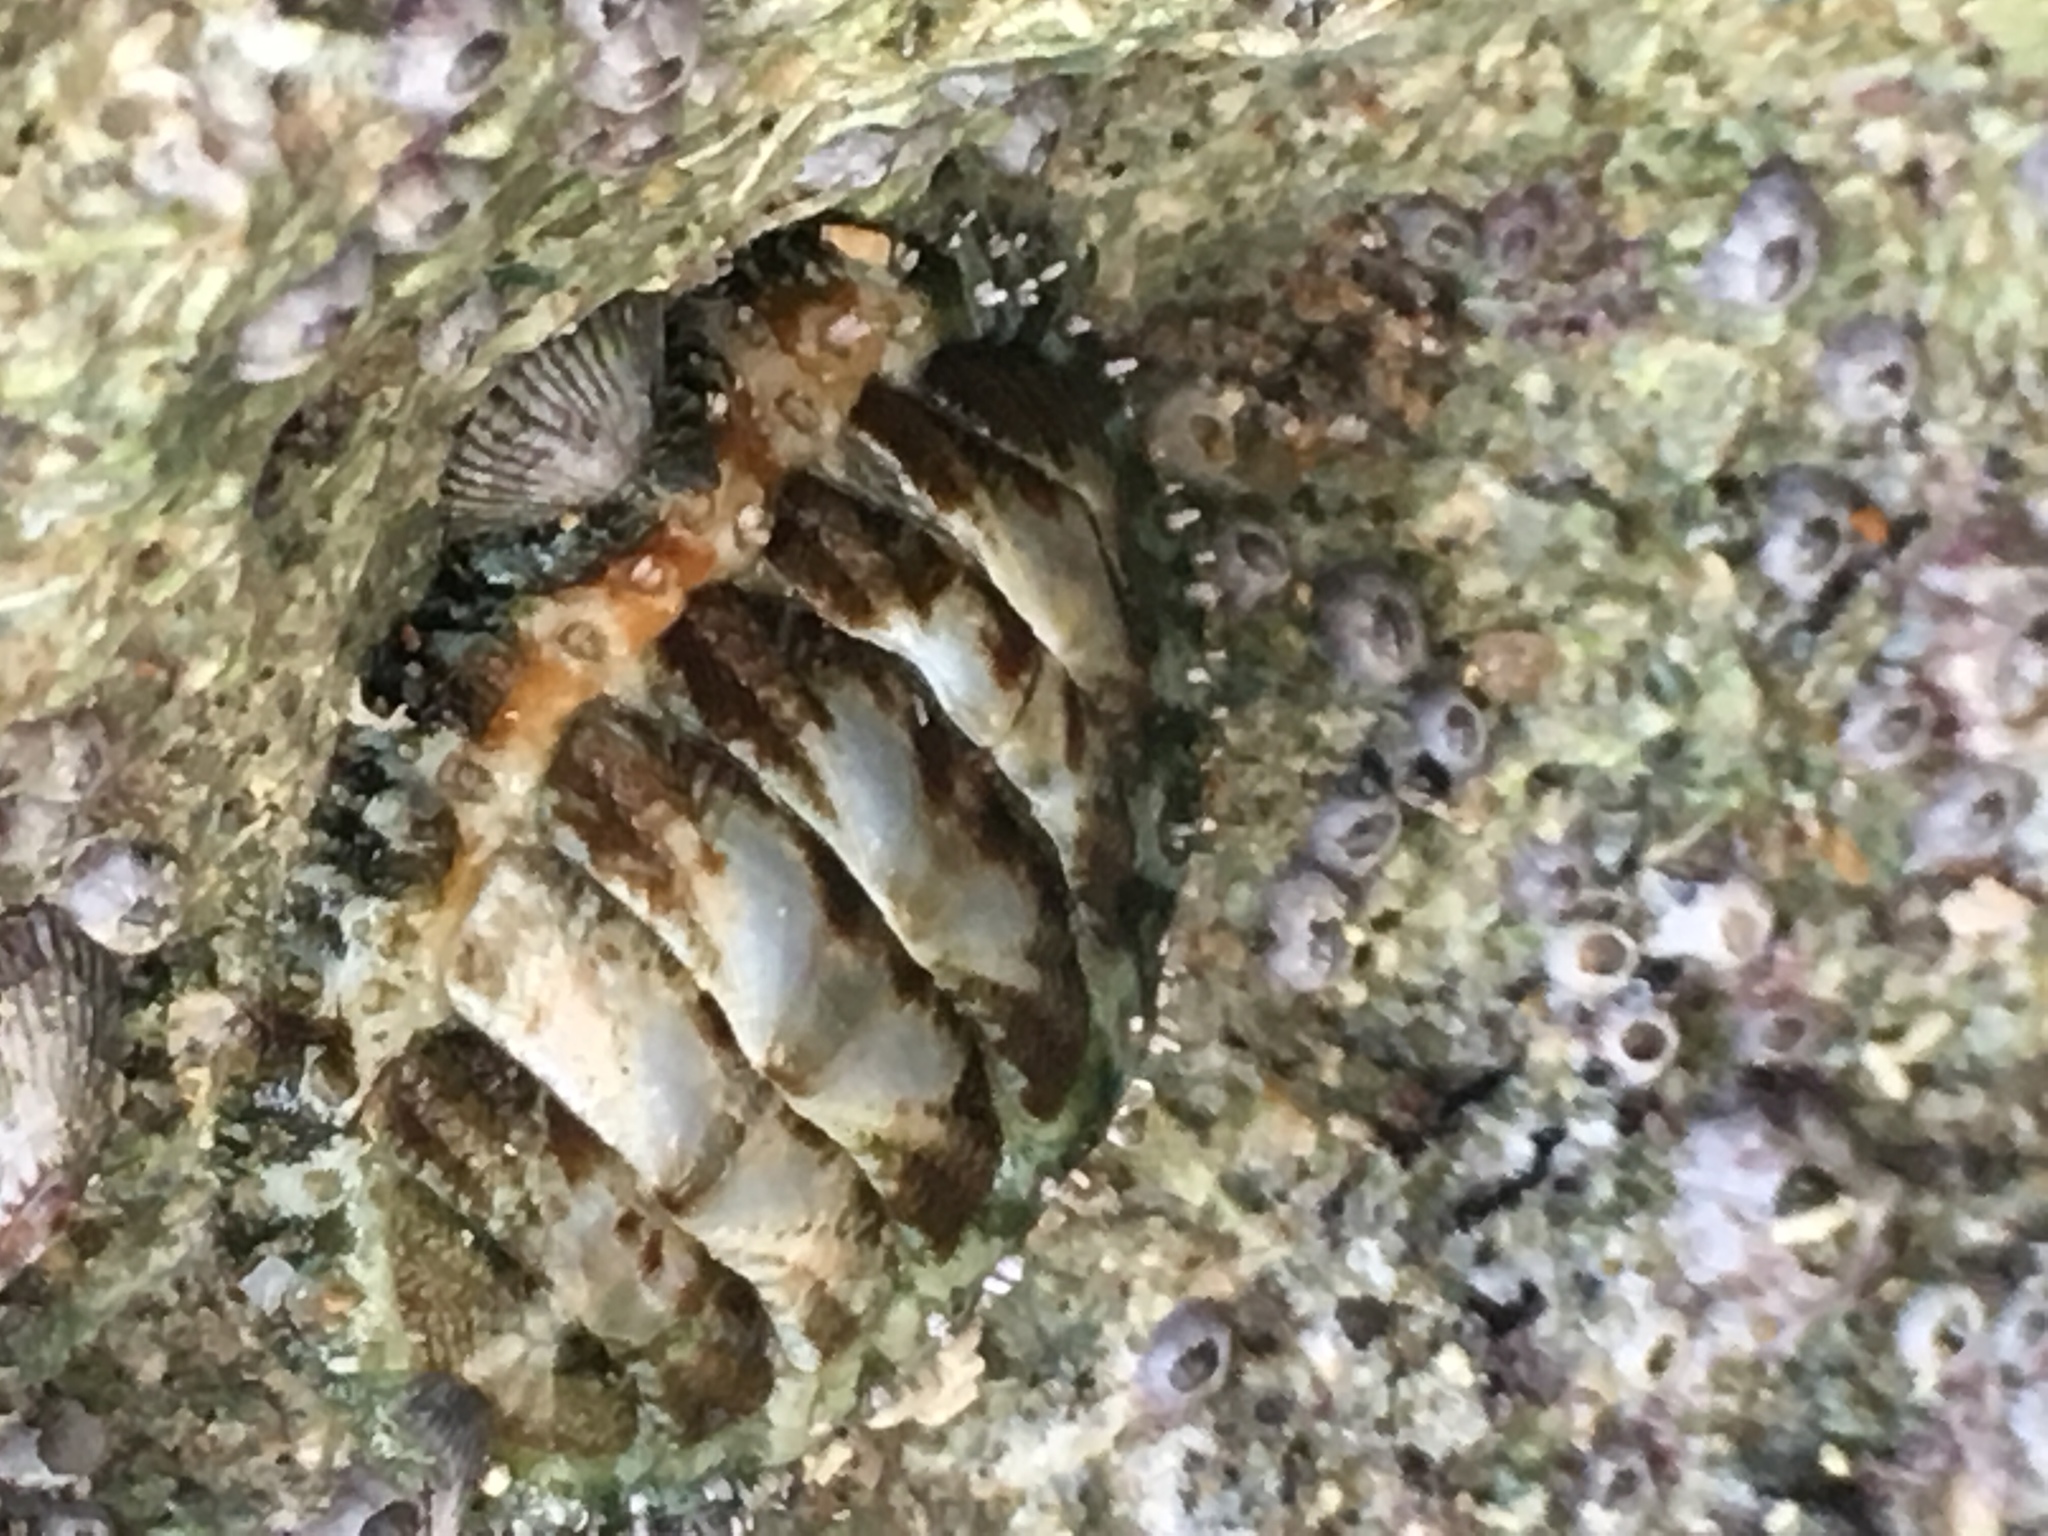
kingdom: Animalia
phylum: Mollusca
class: Polyplacophora
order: Chitonida
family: Tonicellidae
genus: Ceratozona
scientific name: Ceratozona squalida
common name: Rough-girdled chiton
